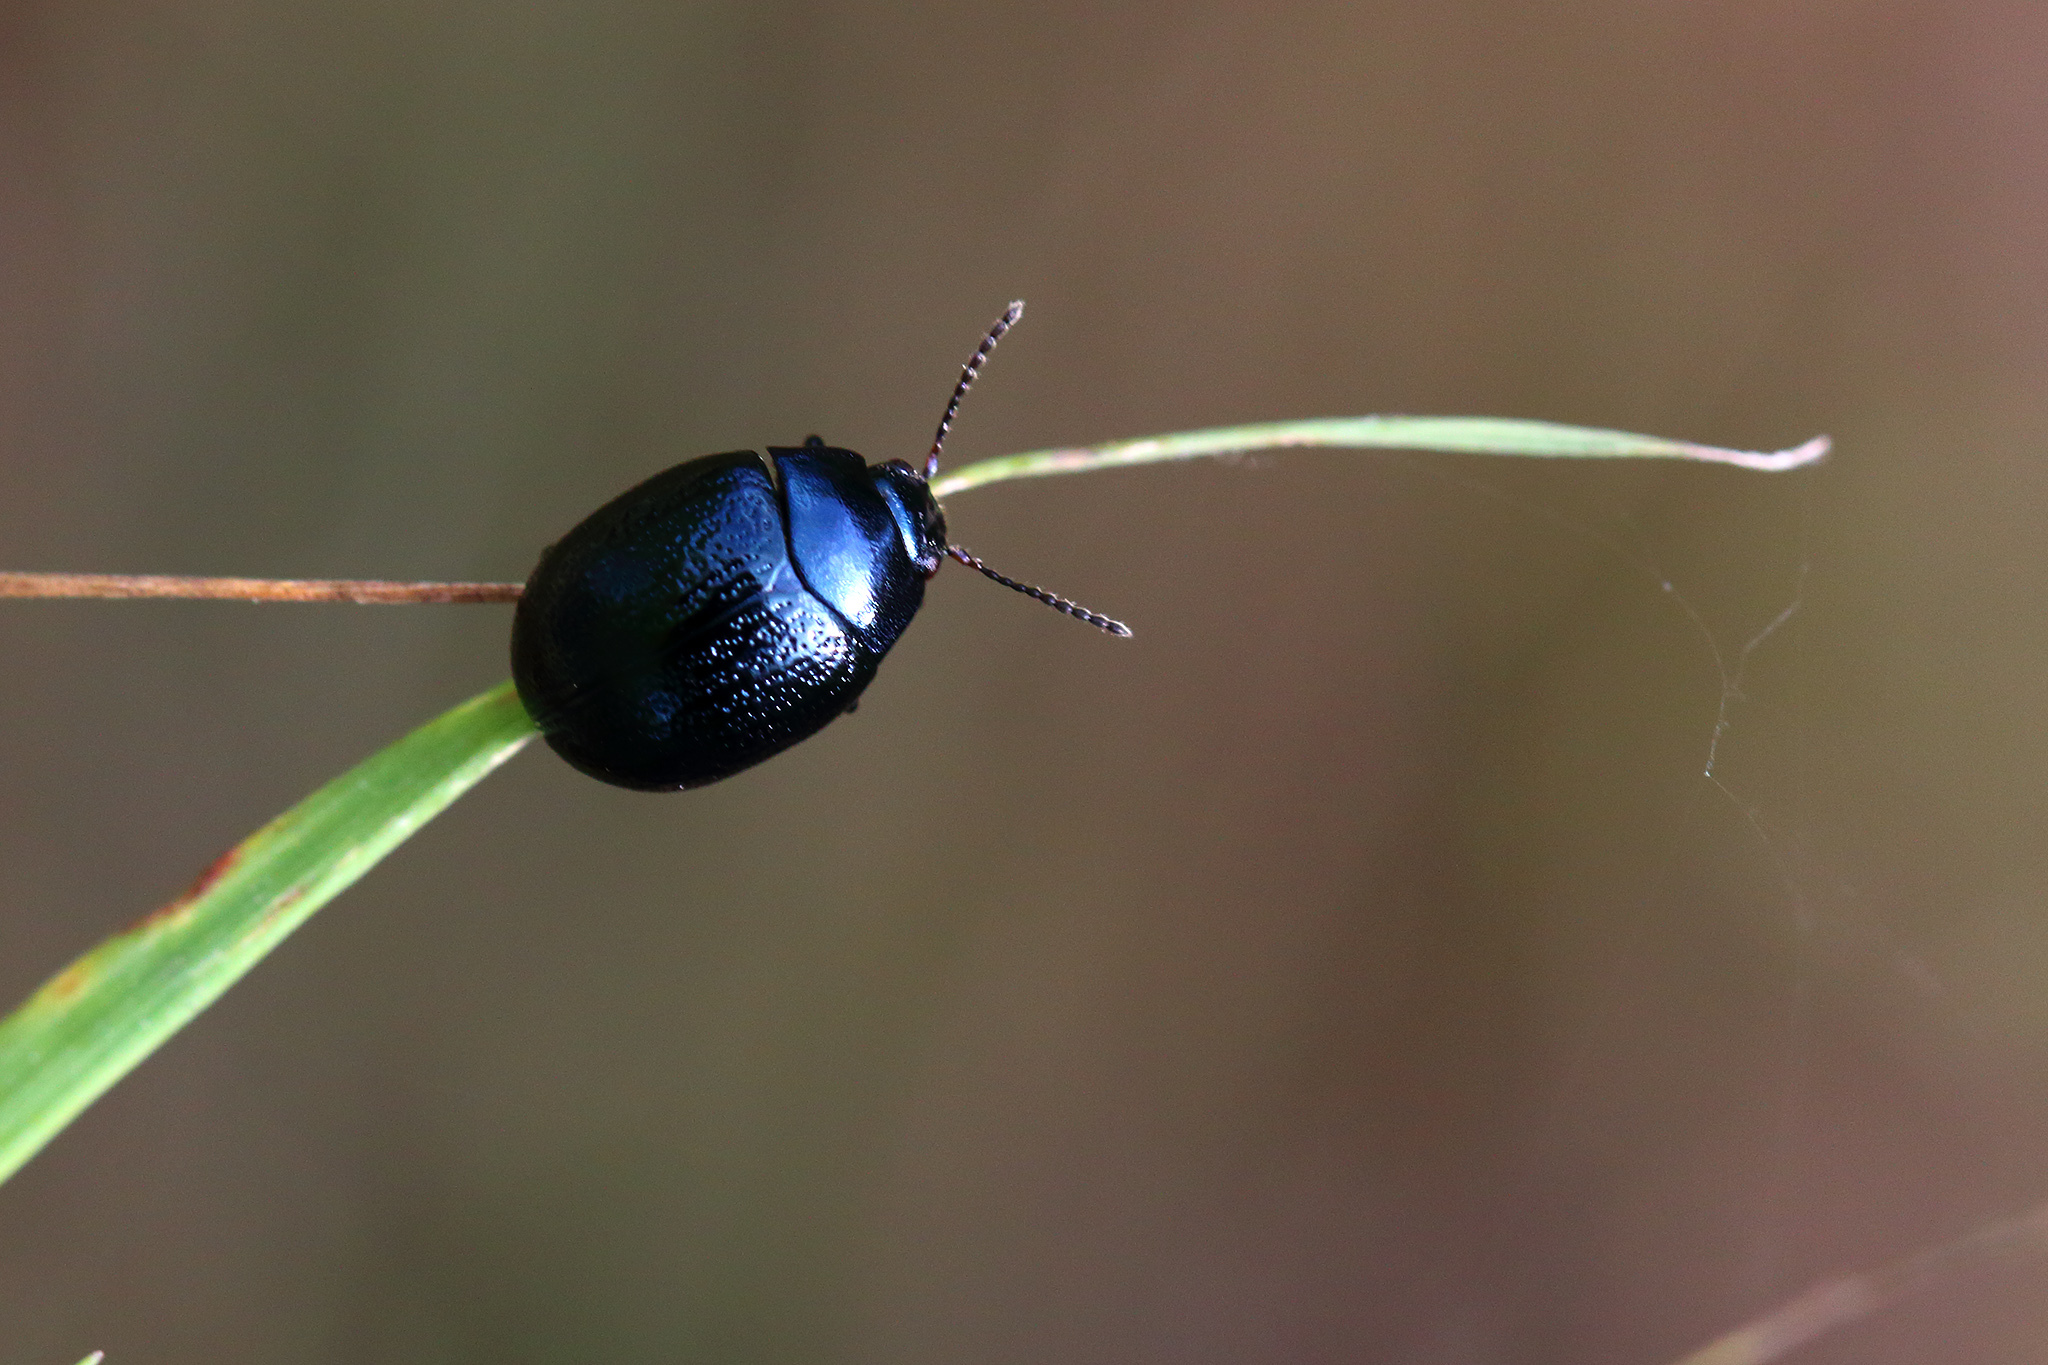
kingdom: Animalia
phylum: Arthropoda
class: Insecta
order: Coleoptera
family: Chrysomelidae
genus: Chrysolina
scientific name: Chrysolina haemoptera
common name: Plantain leaf beetle
